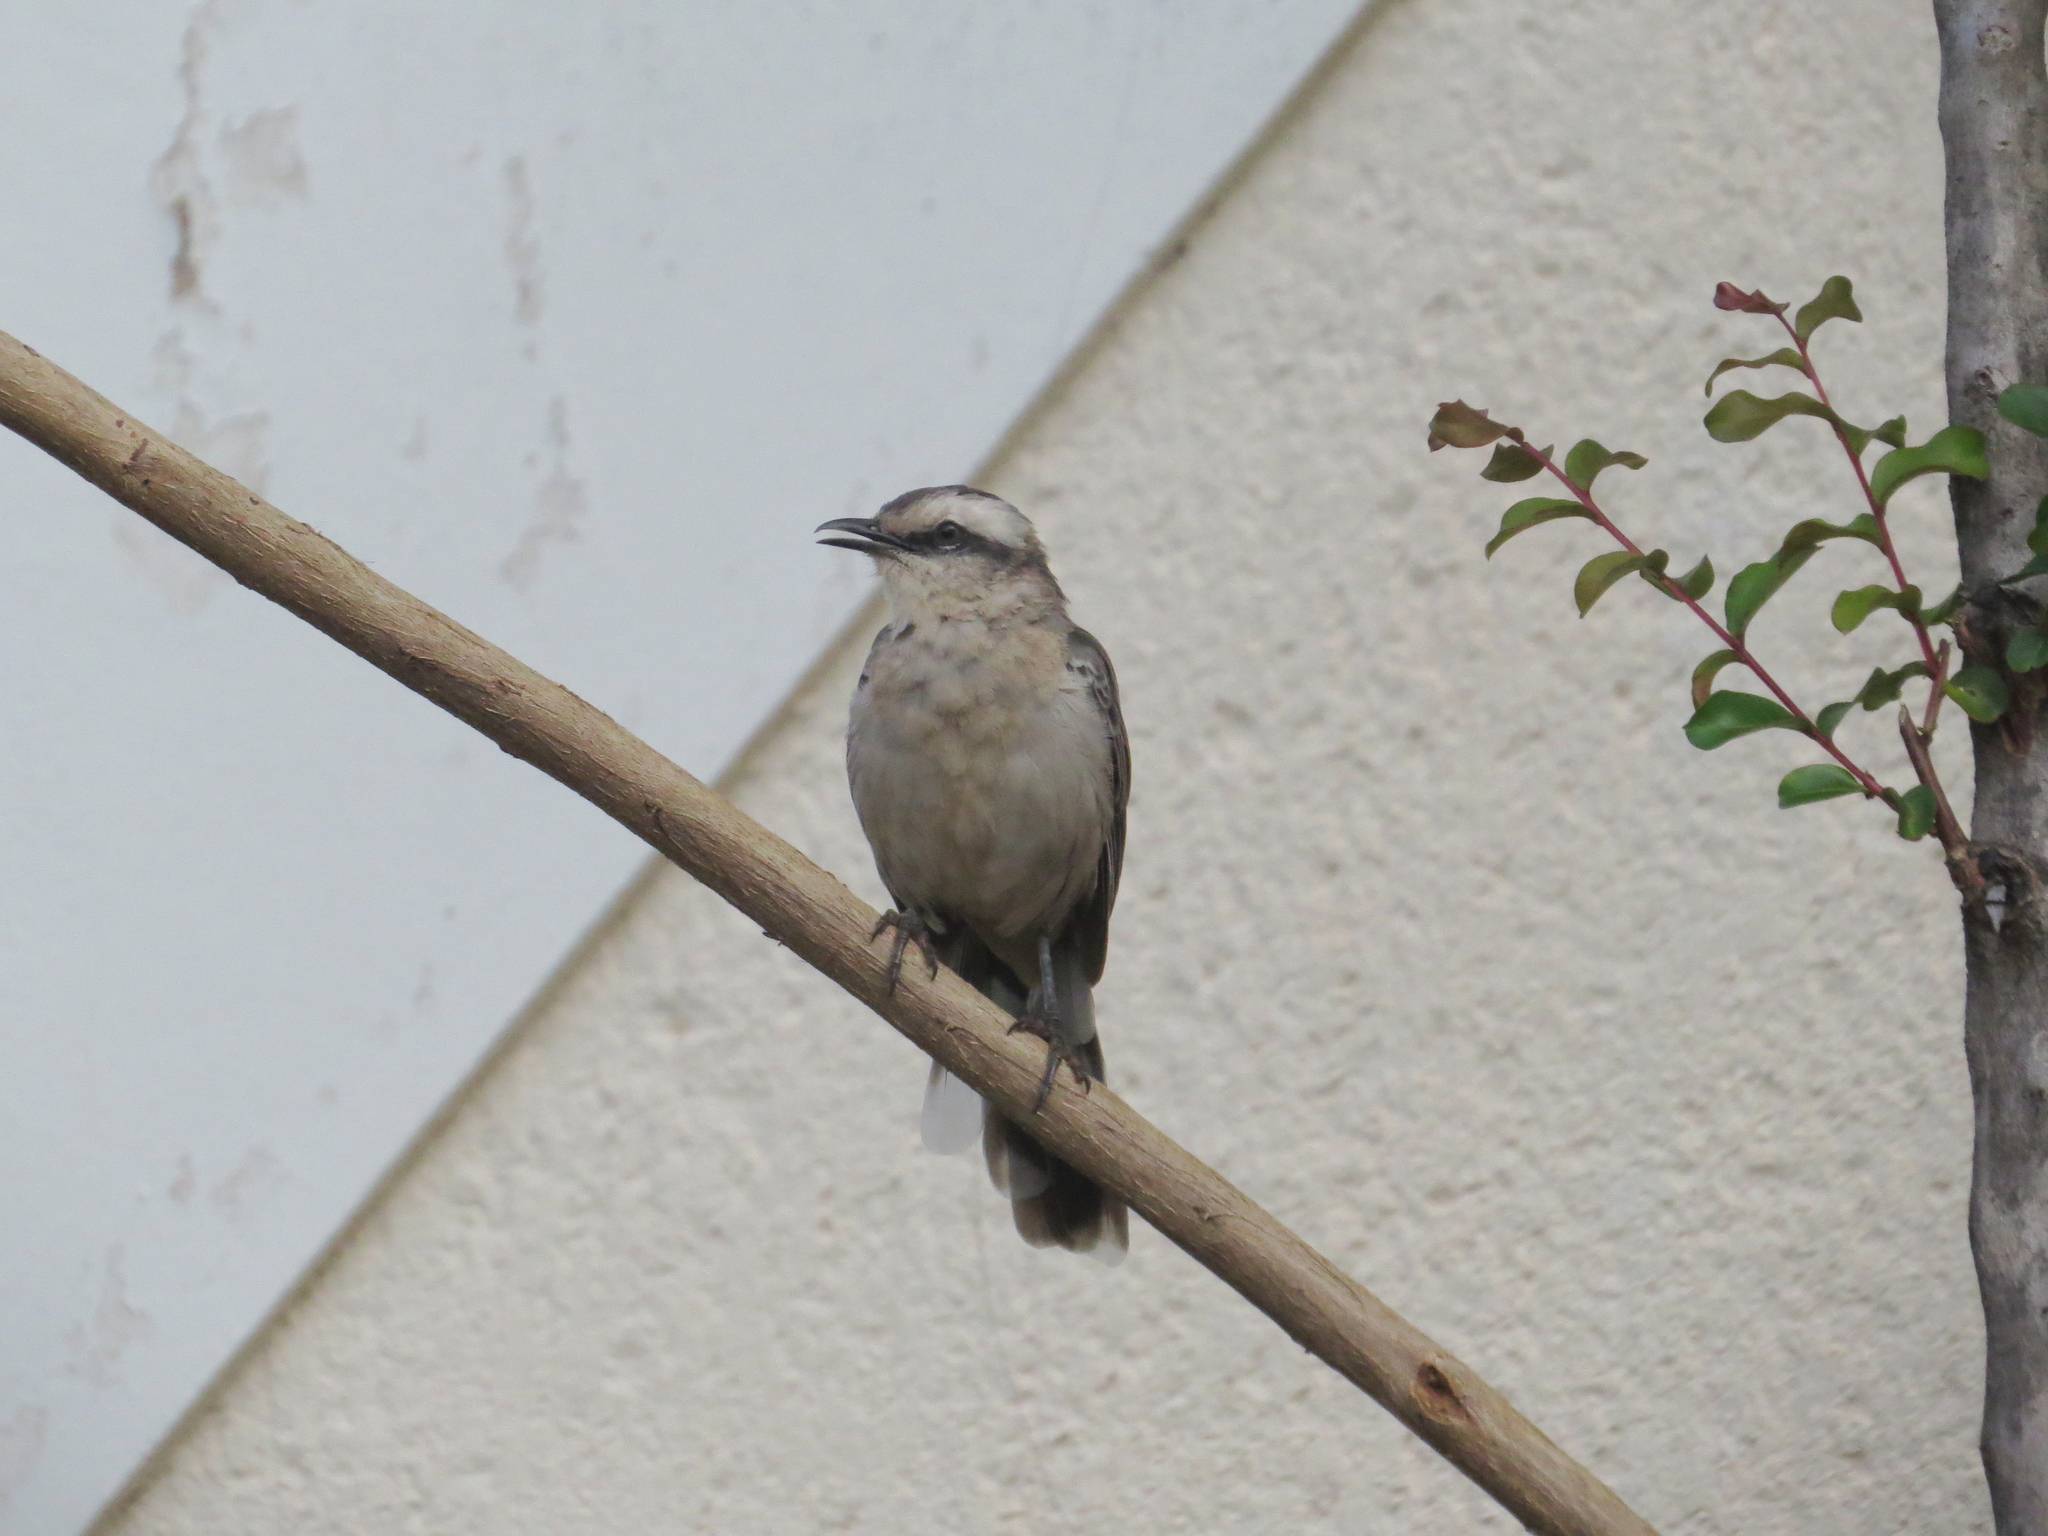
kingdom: Animalia
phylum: Chordata
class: Aves
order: Passeriformes
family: Mimidae
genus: Mimus
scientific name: Mimus saturninus
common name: Chalk-browed mockingbird
